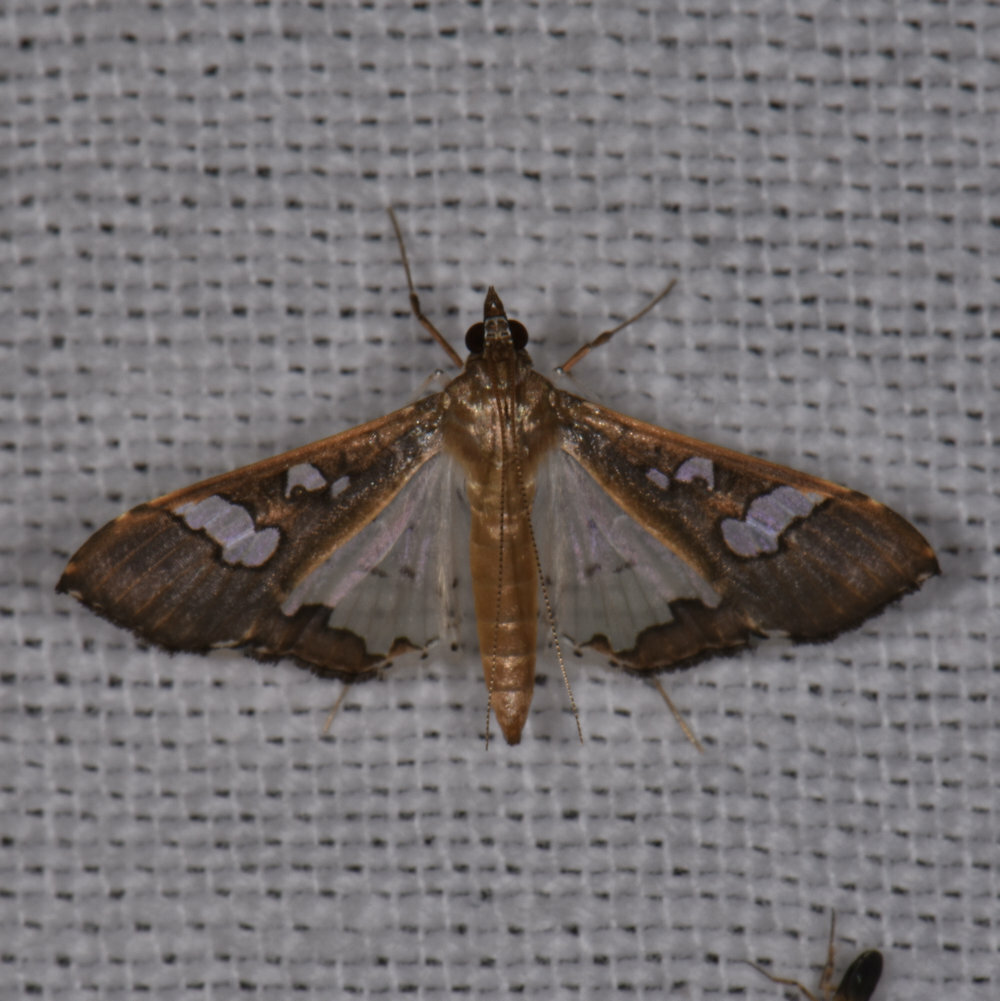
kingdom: Animalia
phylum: Arthropoda
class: Insecta
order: Lepidoptera
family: Crambidae
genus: Maruca
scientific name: Maruca vitrata
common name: Maruca pod borer
